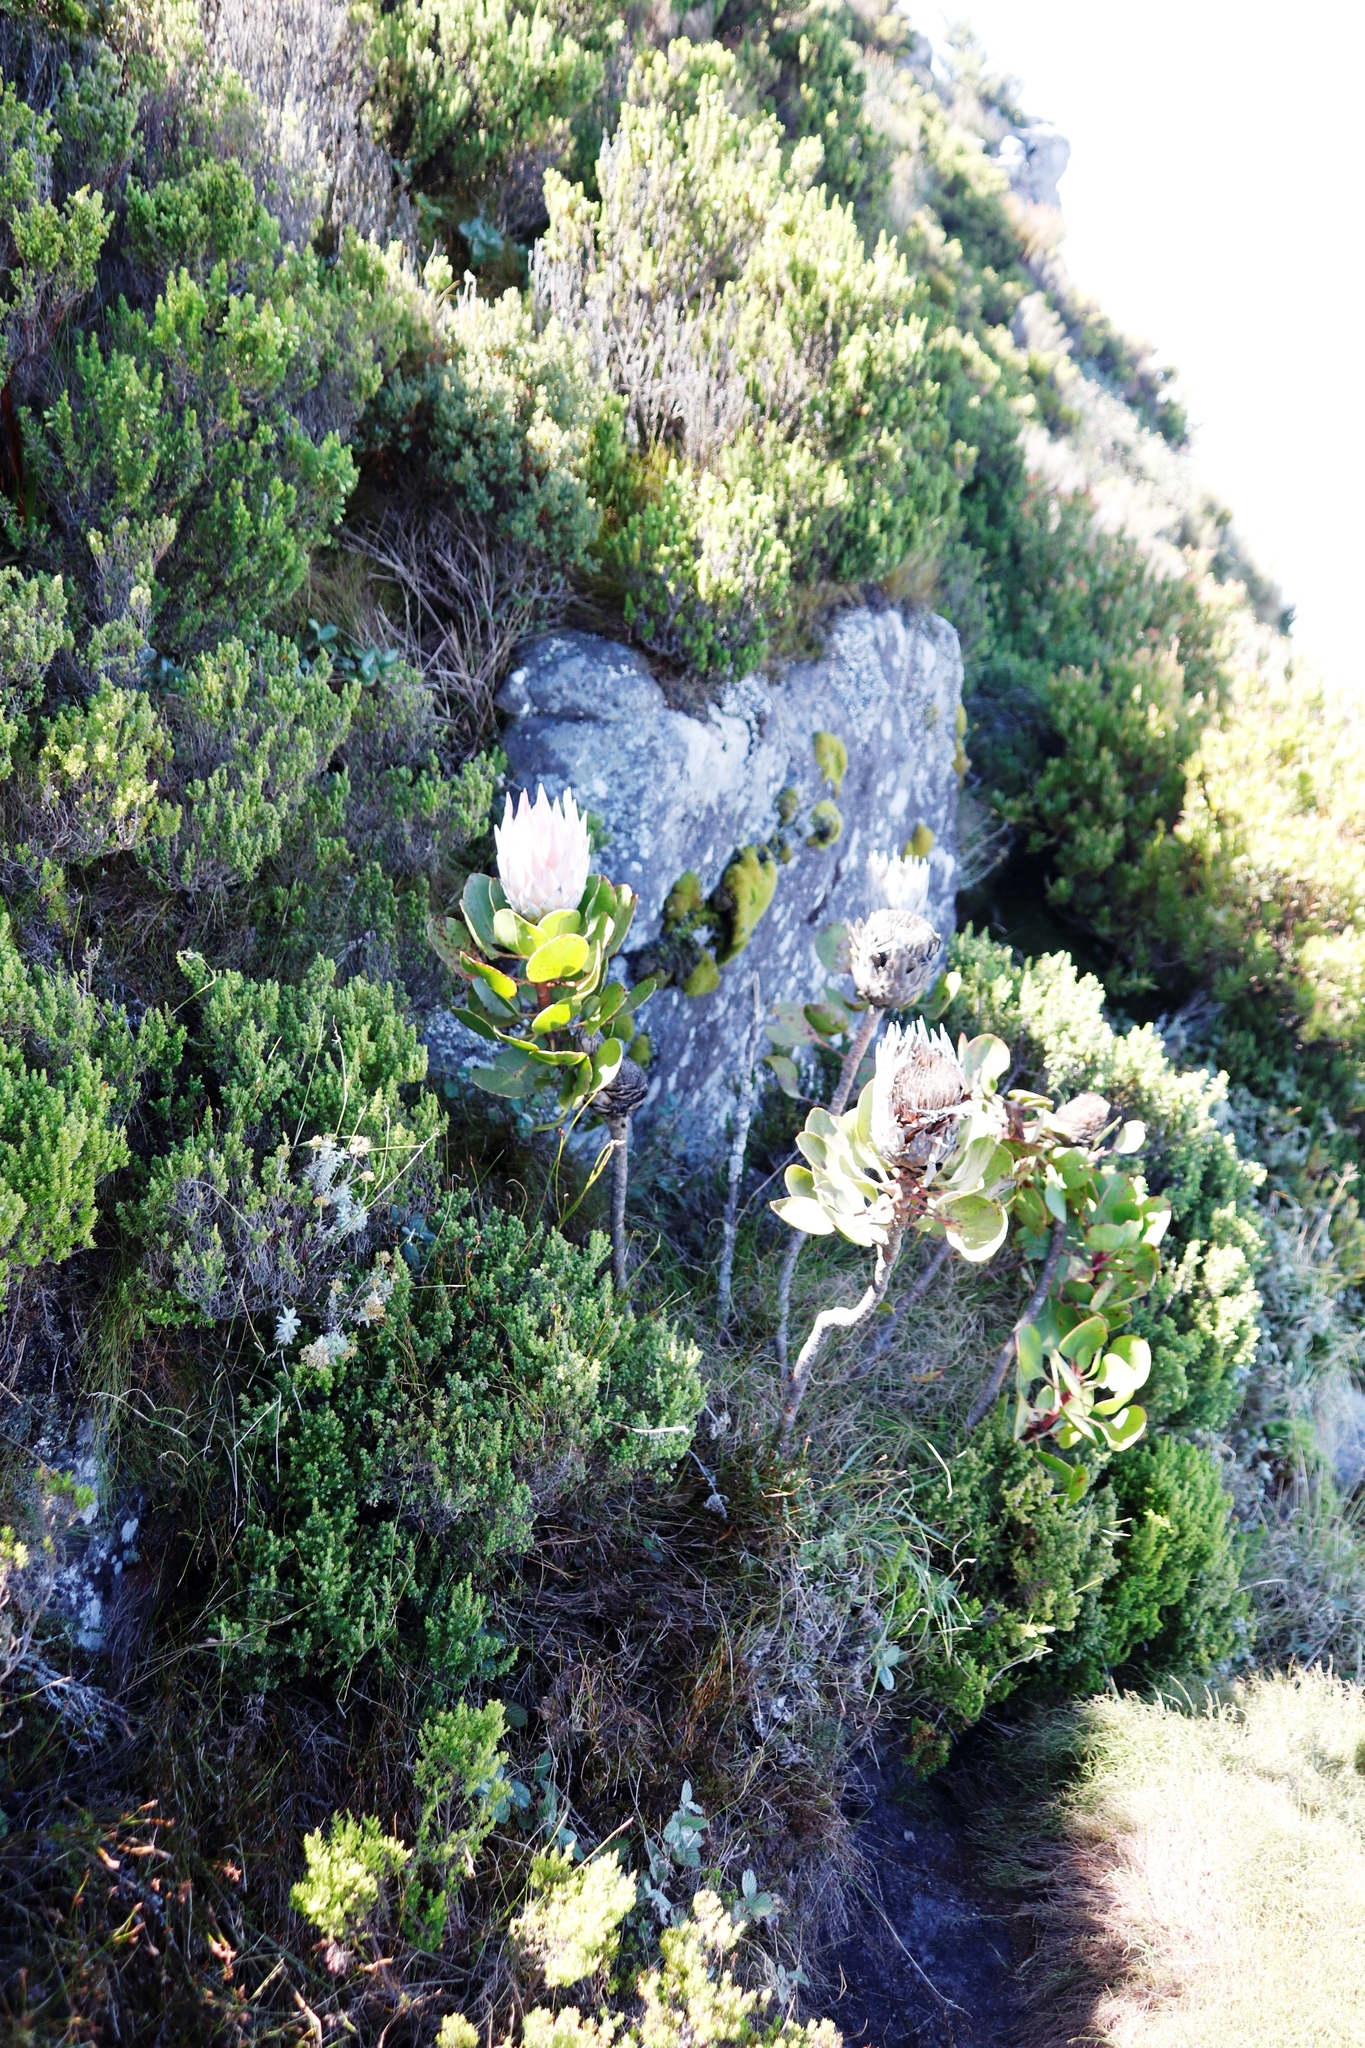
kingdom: Plantae
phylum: Tracheophyta
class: Magnoliopsida
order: Proteales
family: Proteaceae
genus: Protea
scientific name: Protea cynaroides
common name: King protea
